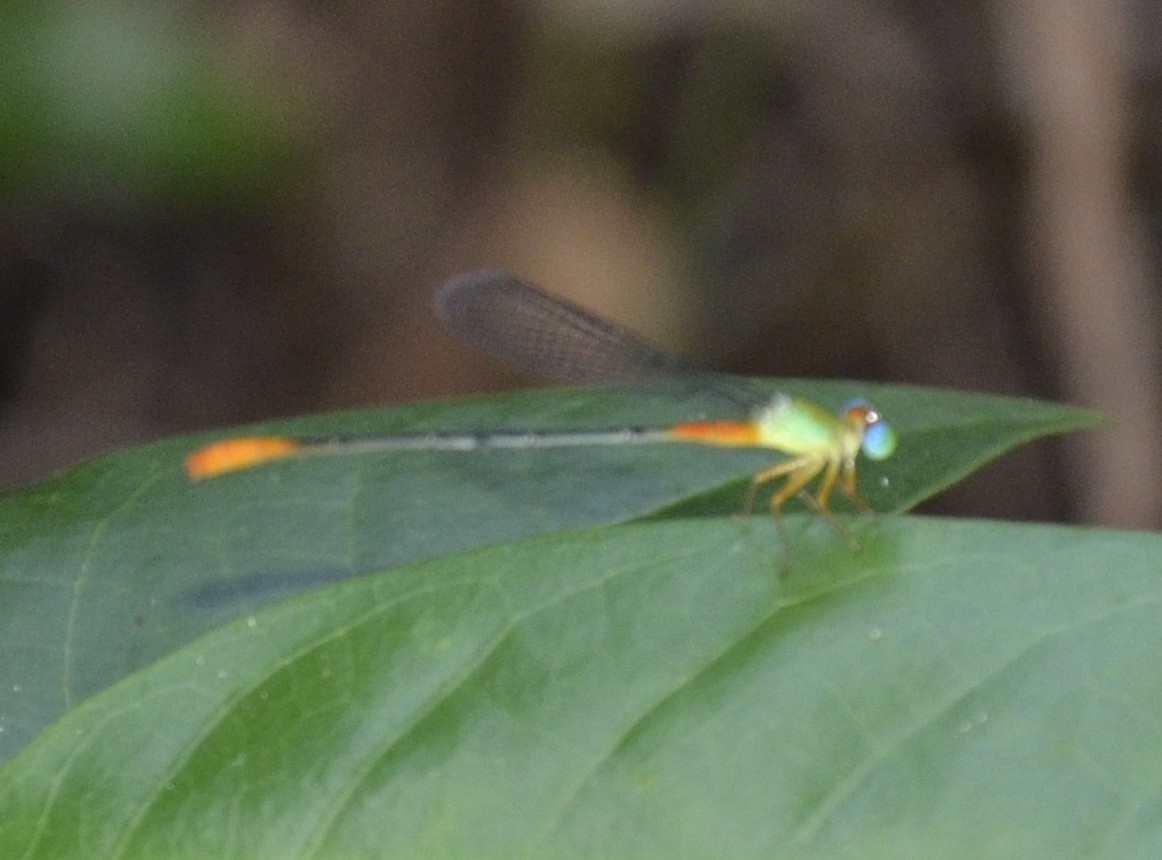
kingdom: Animalia
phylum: Arthropoda
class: Insecta
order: Odonata
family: Coenagrionidae
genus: Ceriagrion
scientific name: Ceriagrion cerinorubellum
